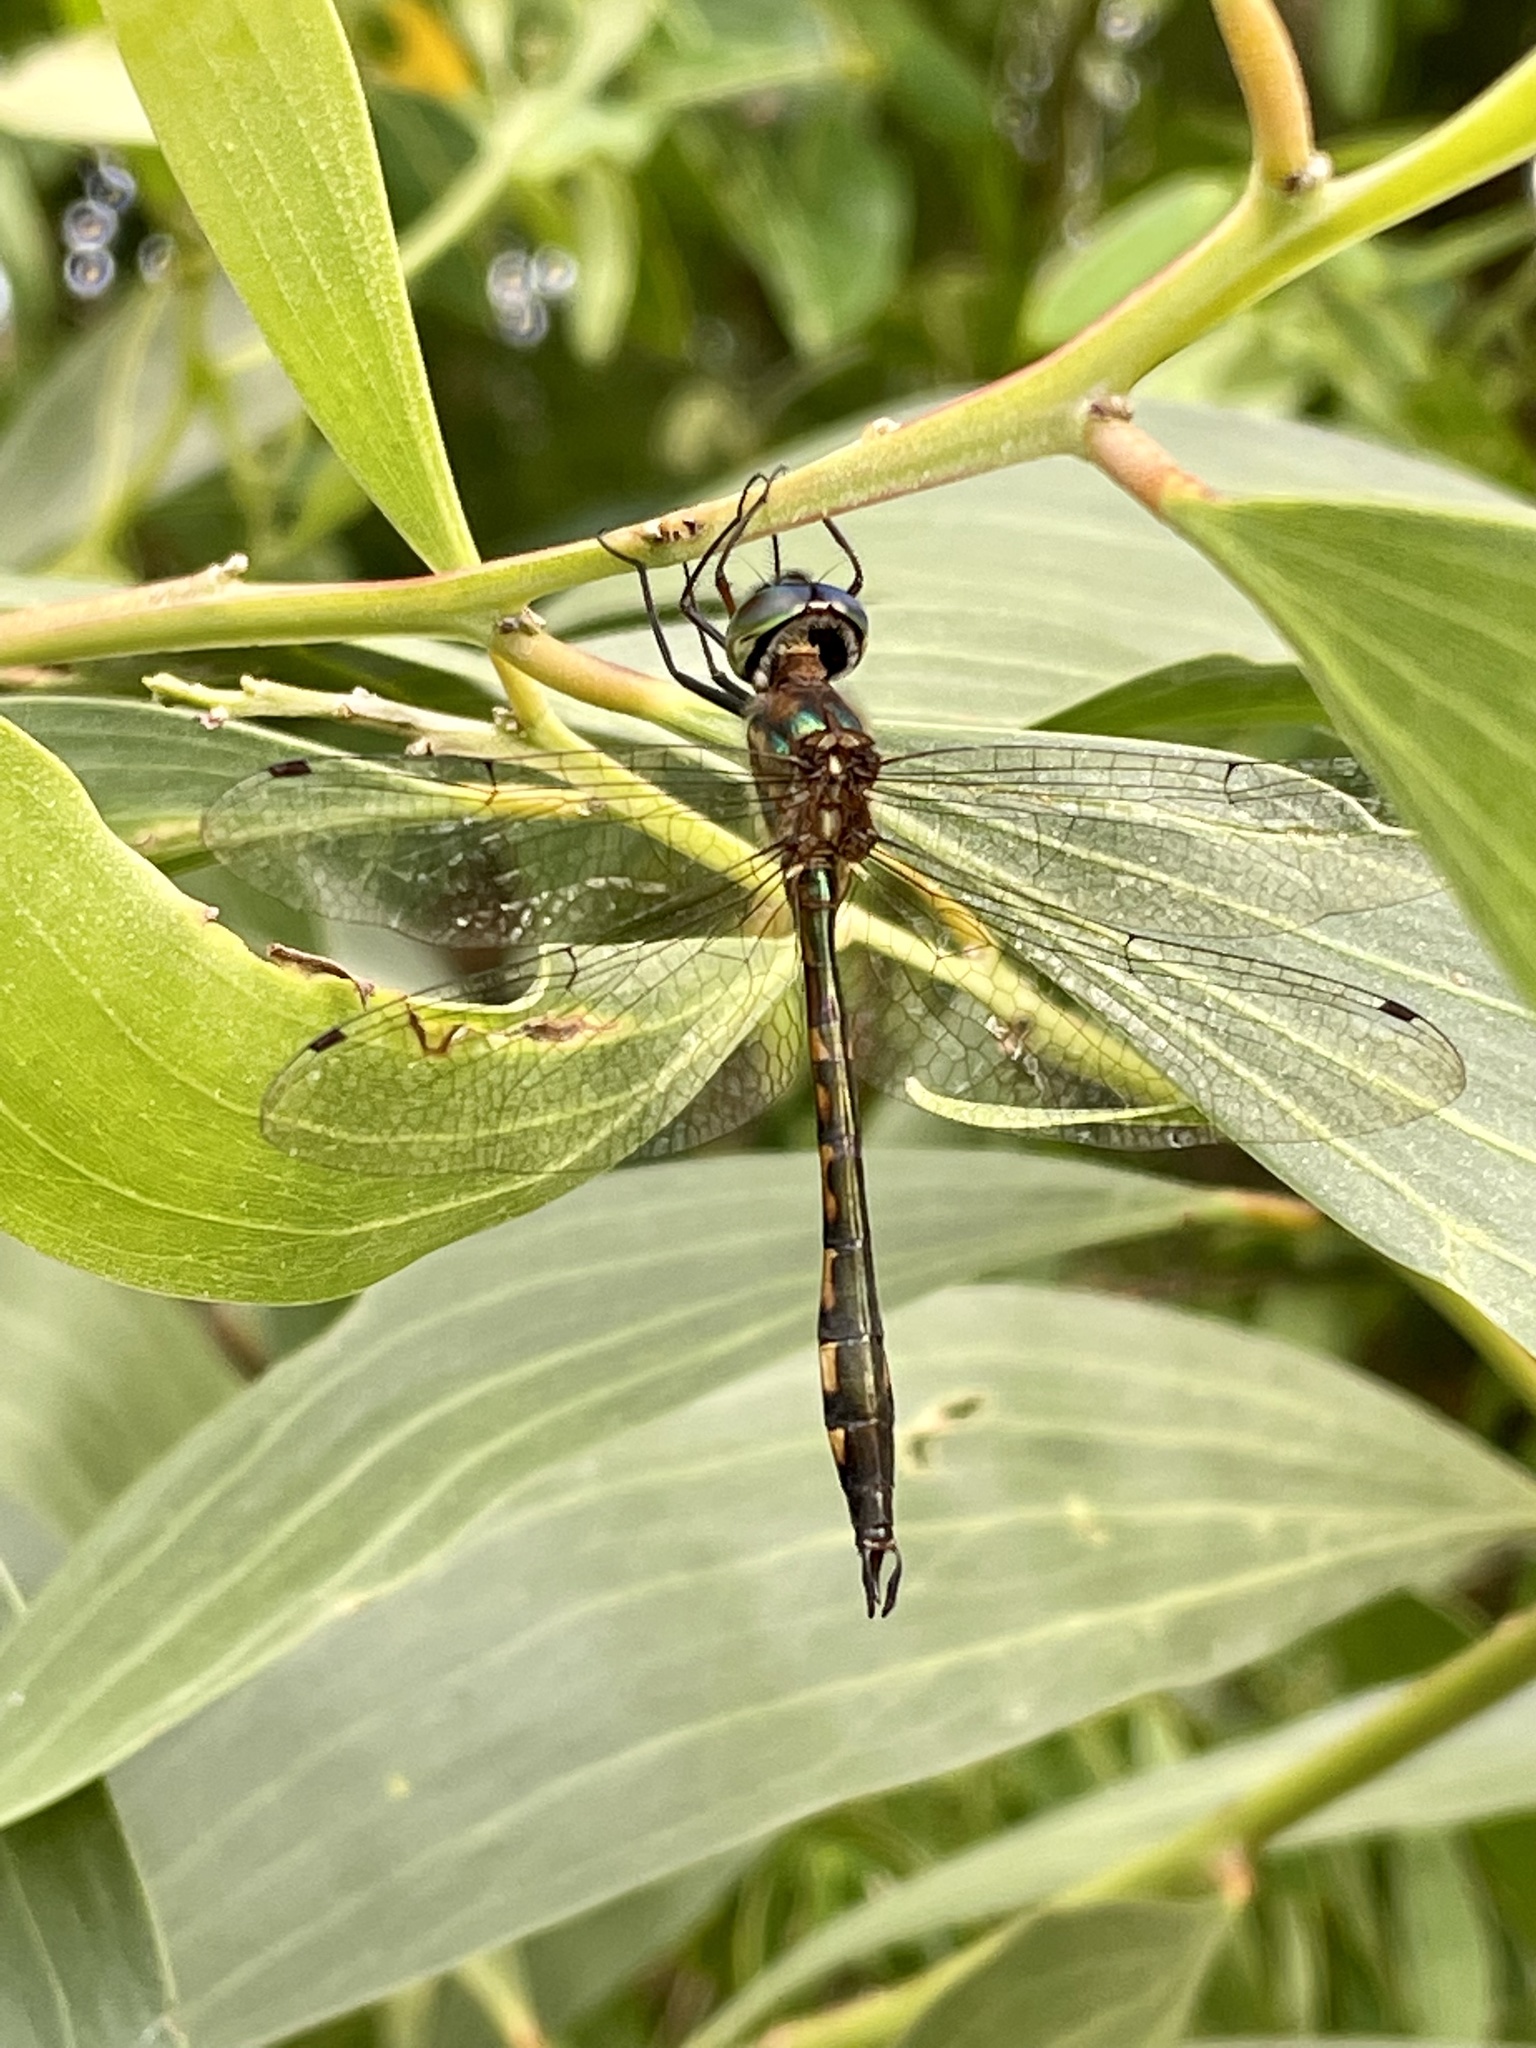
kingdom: Animalia
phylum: Arthropoda
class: Insecta
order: Odonata
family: Corduliidae
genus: Hemicordulia
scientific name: Hemicordulia continentalis
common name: Fat-bellied emerald
